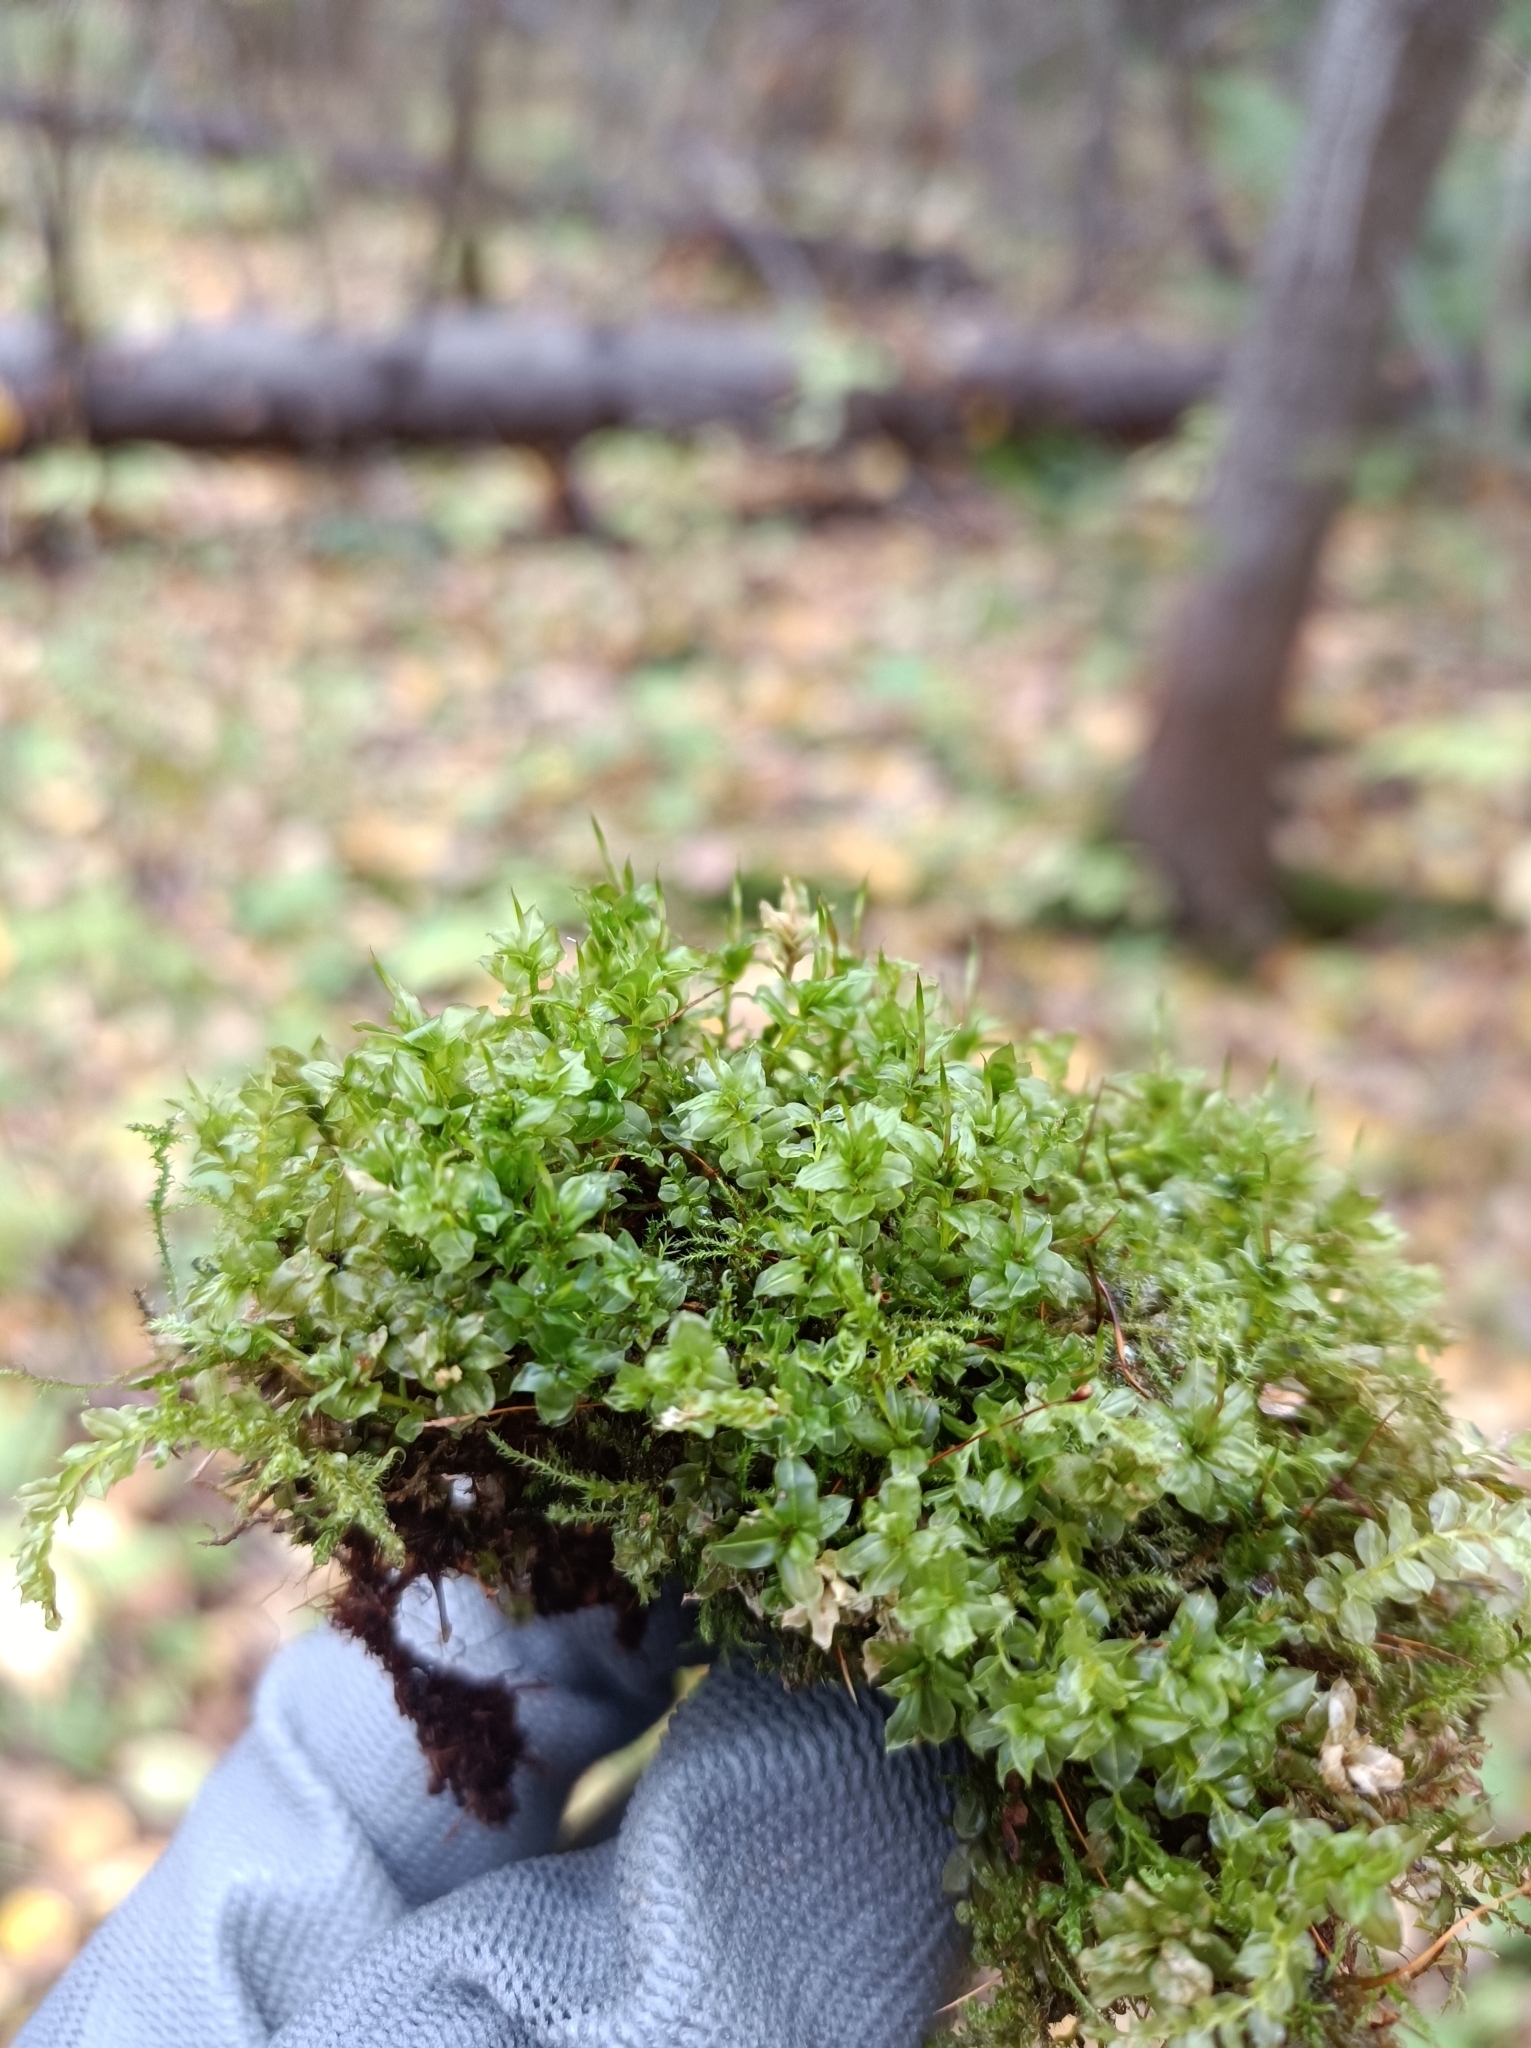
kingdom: Plantae
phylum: Bryophyta
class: Bryopsida
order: Bryales
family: Mniaceae
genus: Plagiomnium
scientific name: Plagiomnium affine
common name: Many-fruited thyme-moss
